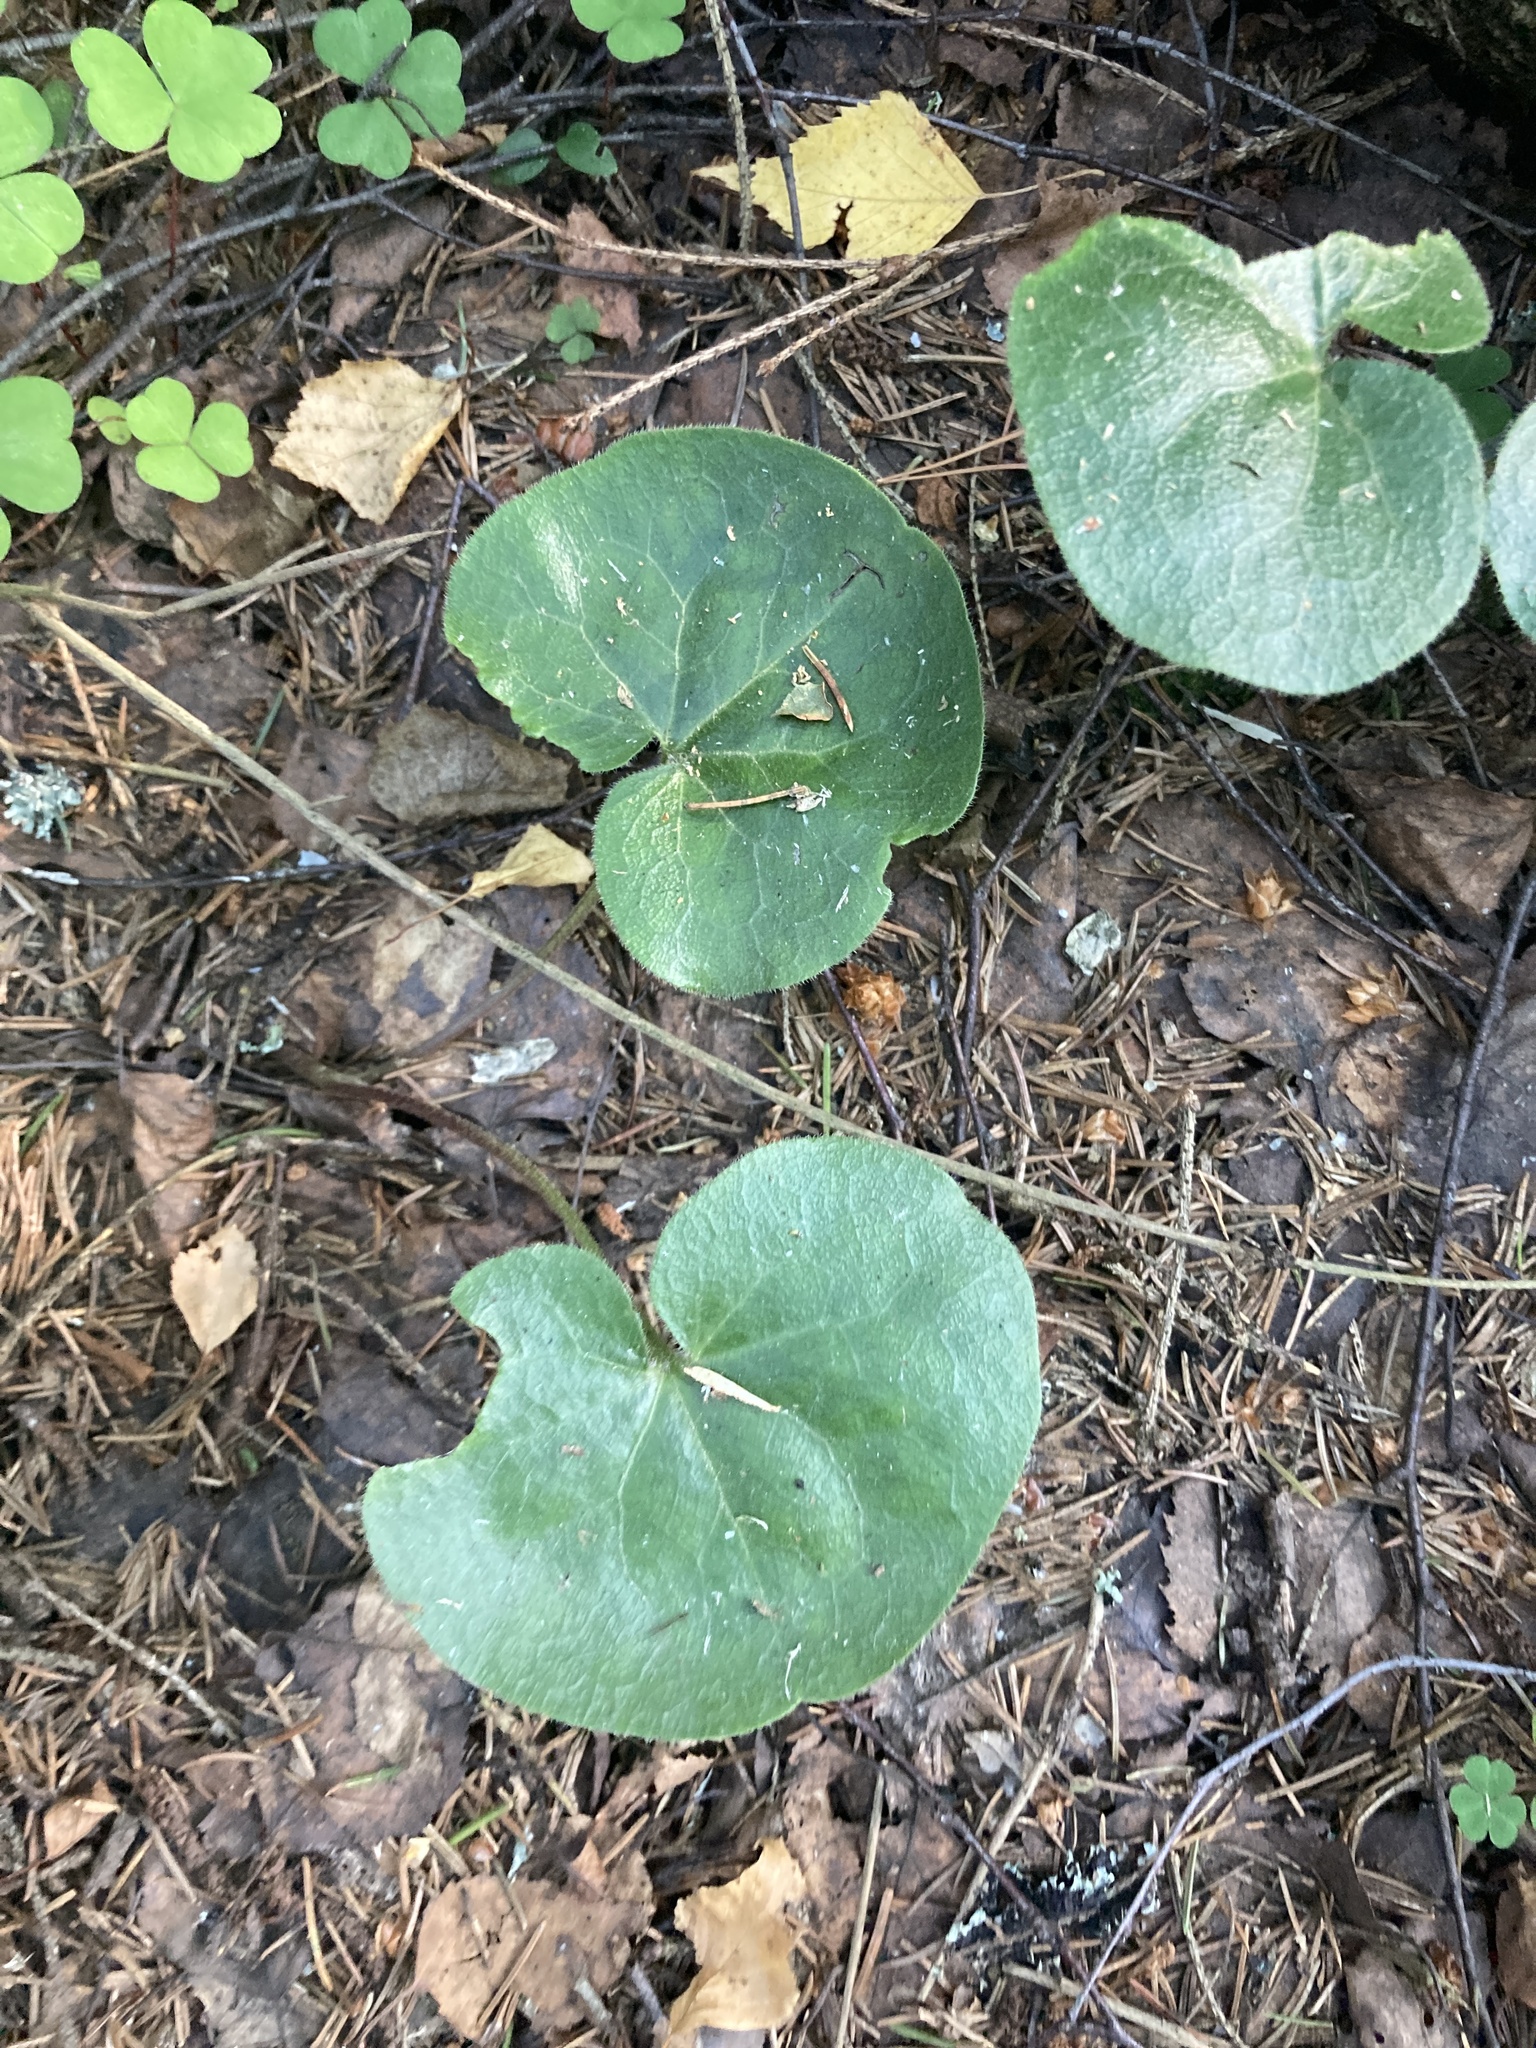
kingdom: Plantae
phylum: Tracheophyta
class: Magnoliopsida
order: Piperales
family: Aristolochiaceae
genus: Asarum
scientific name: Asarum europaeum
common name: Asarabacca
